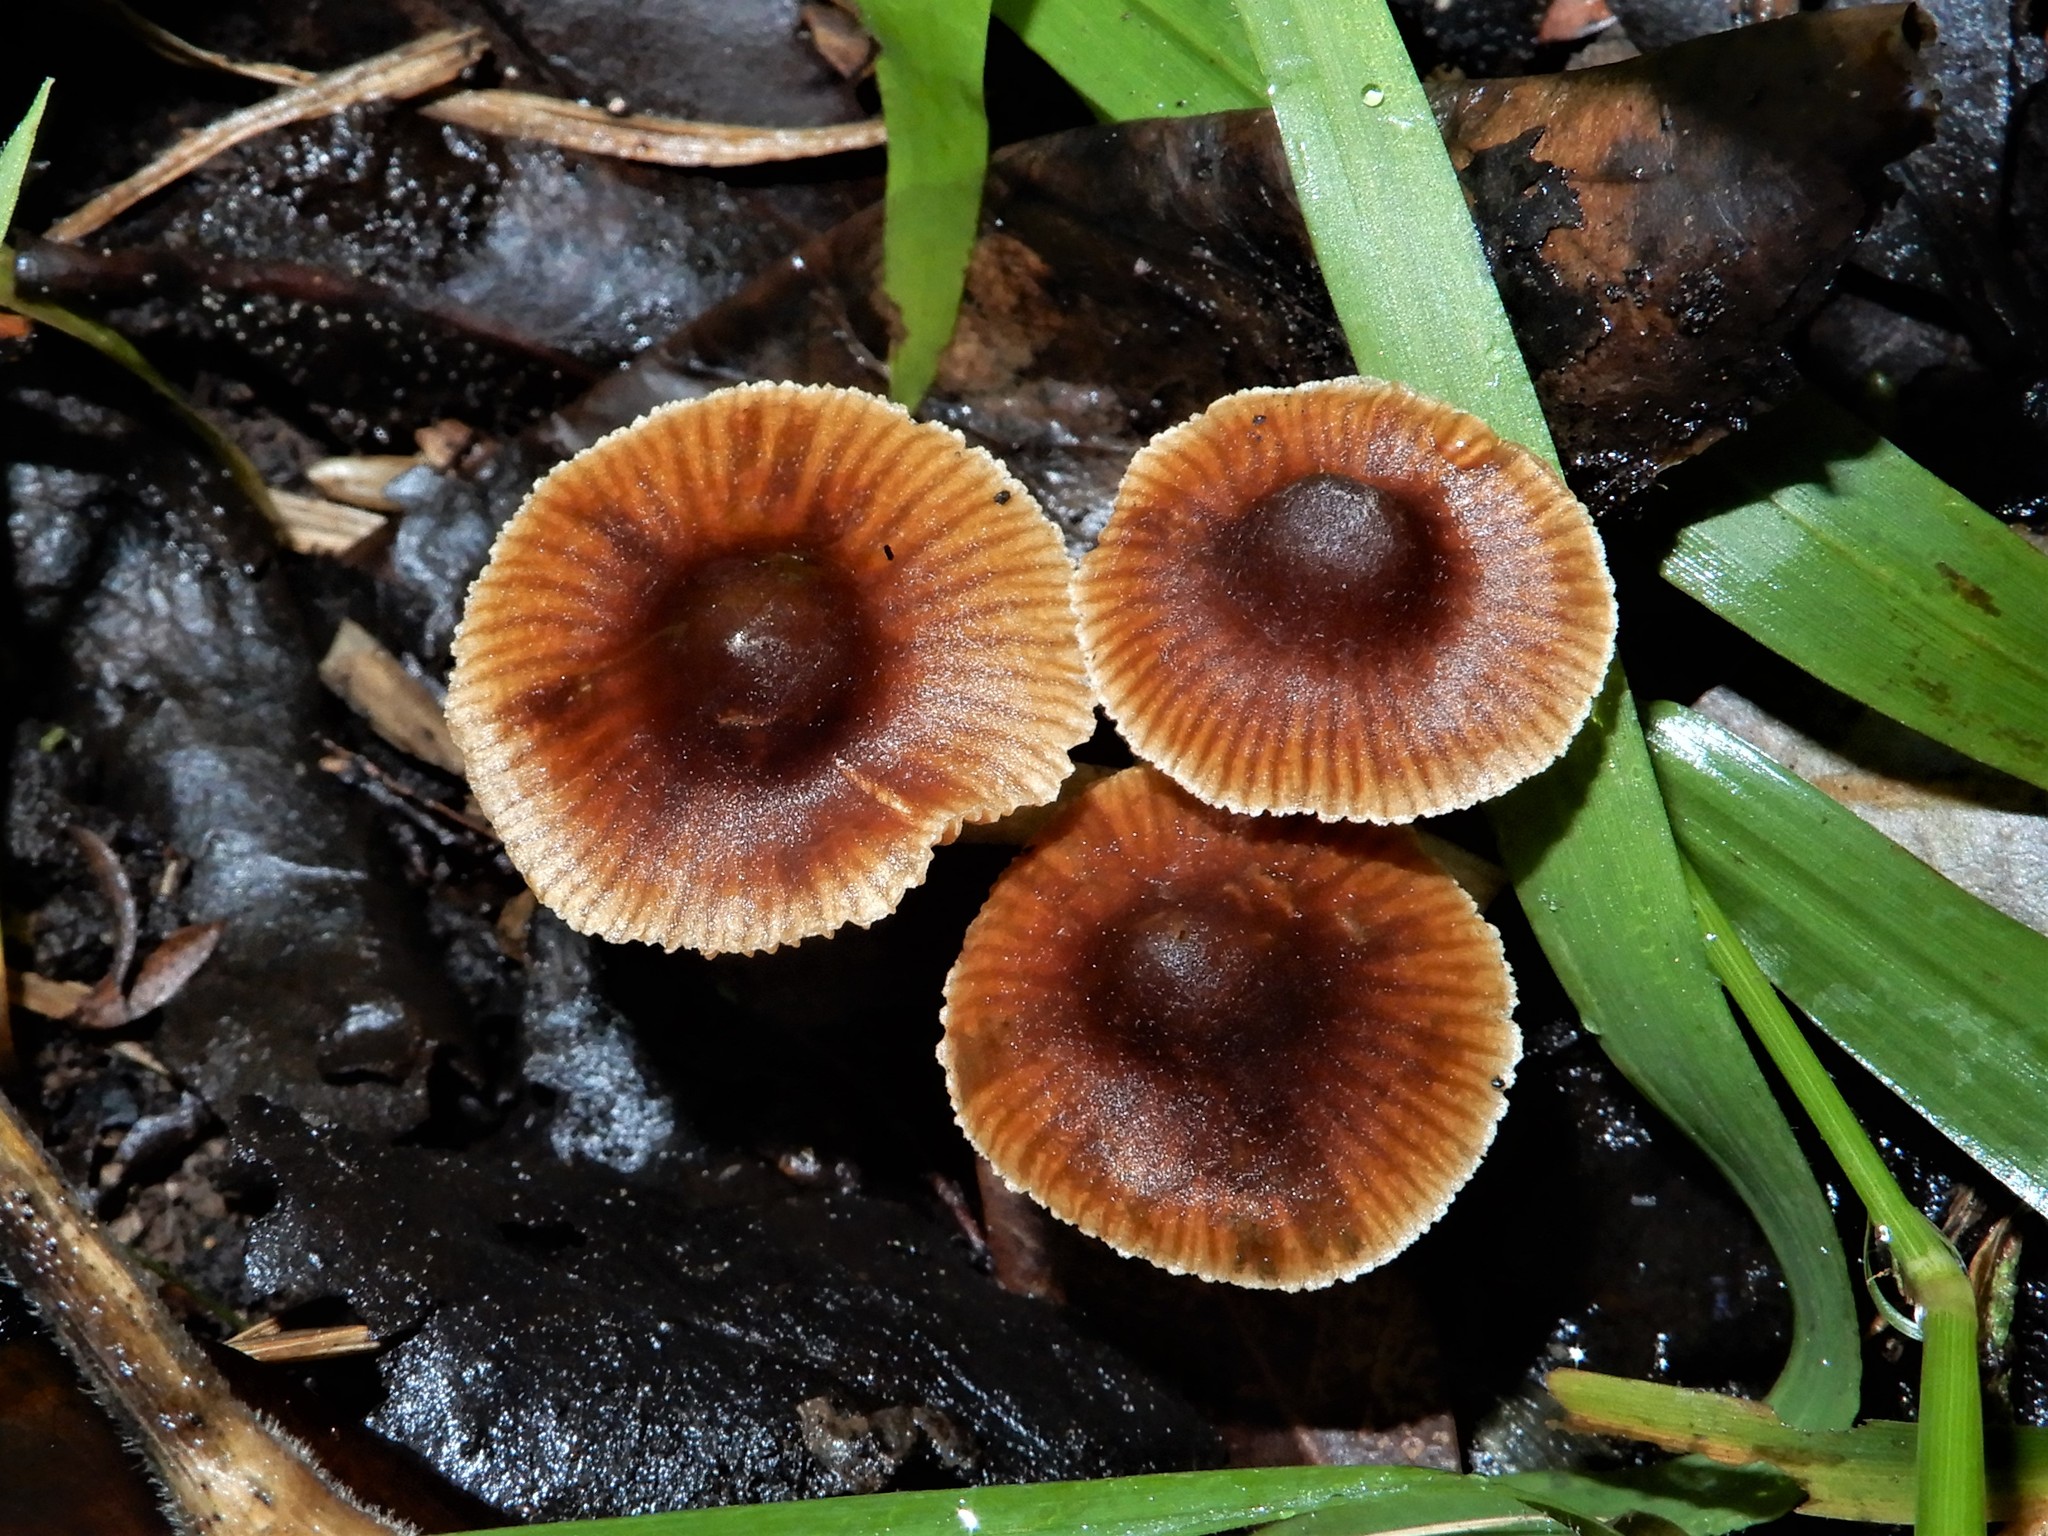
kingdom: Fungi
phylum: Basidiomycota
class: Agaricomycetes
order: Agaricales
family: Cortinariaceae
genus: Cortinarius
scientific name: Cortinarius waiporianus
